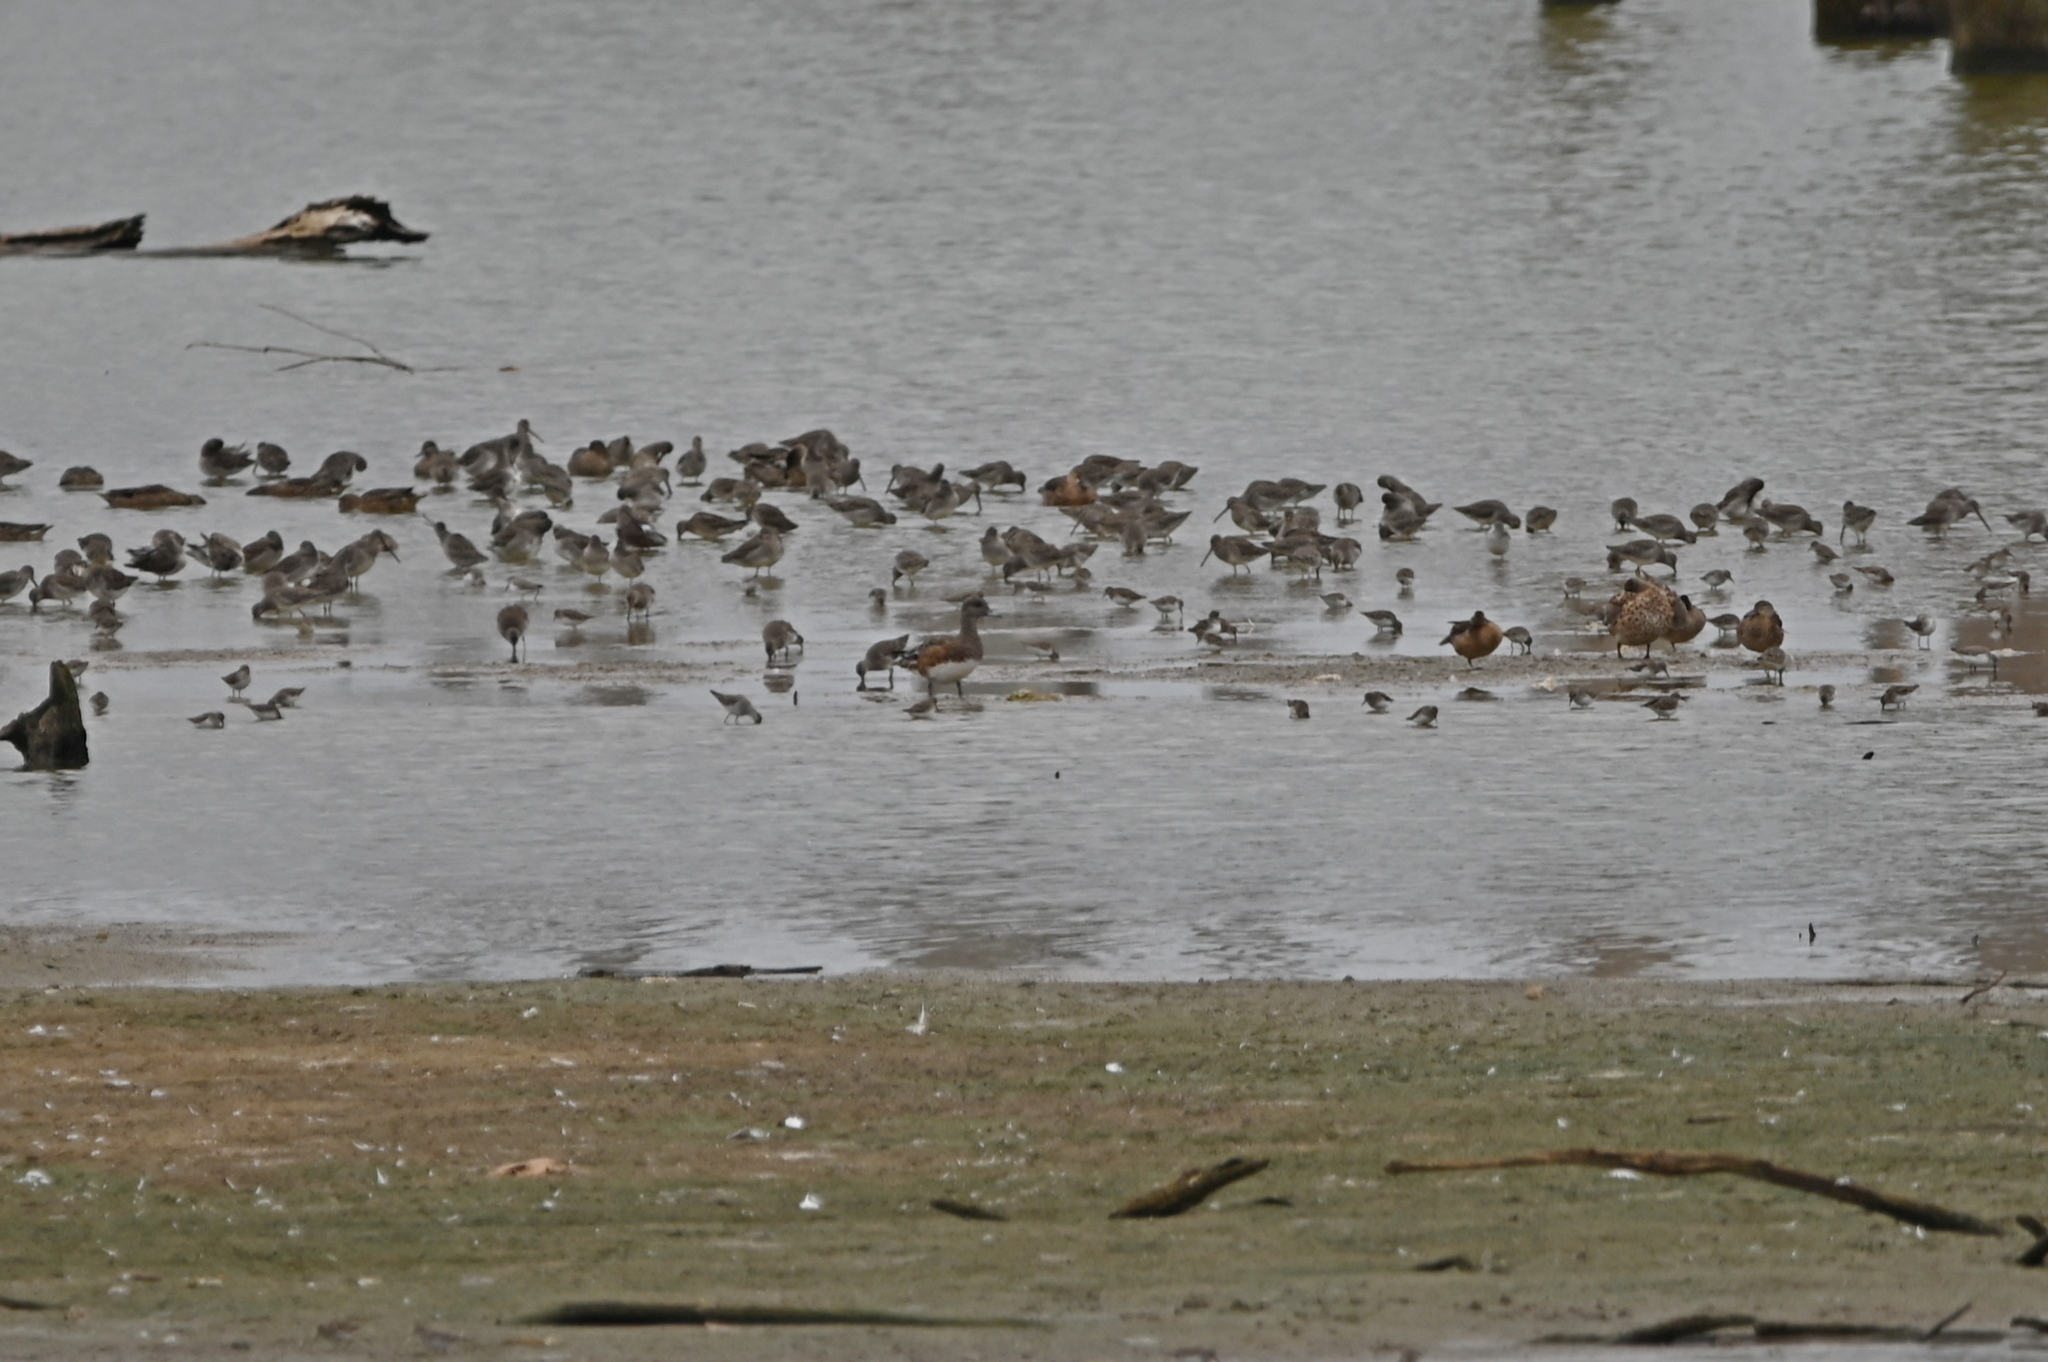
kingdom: Animalia
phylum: Chordata
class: Aves
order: Anseriformes
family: Anatidae
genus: Mareca
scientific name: Mareca americana
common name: American wigeon
